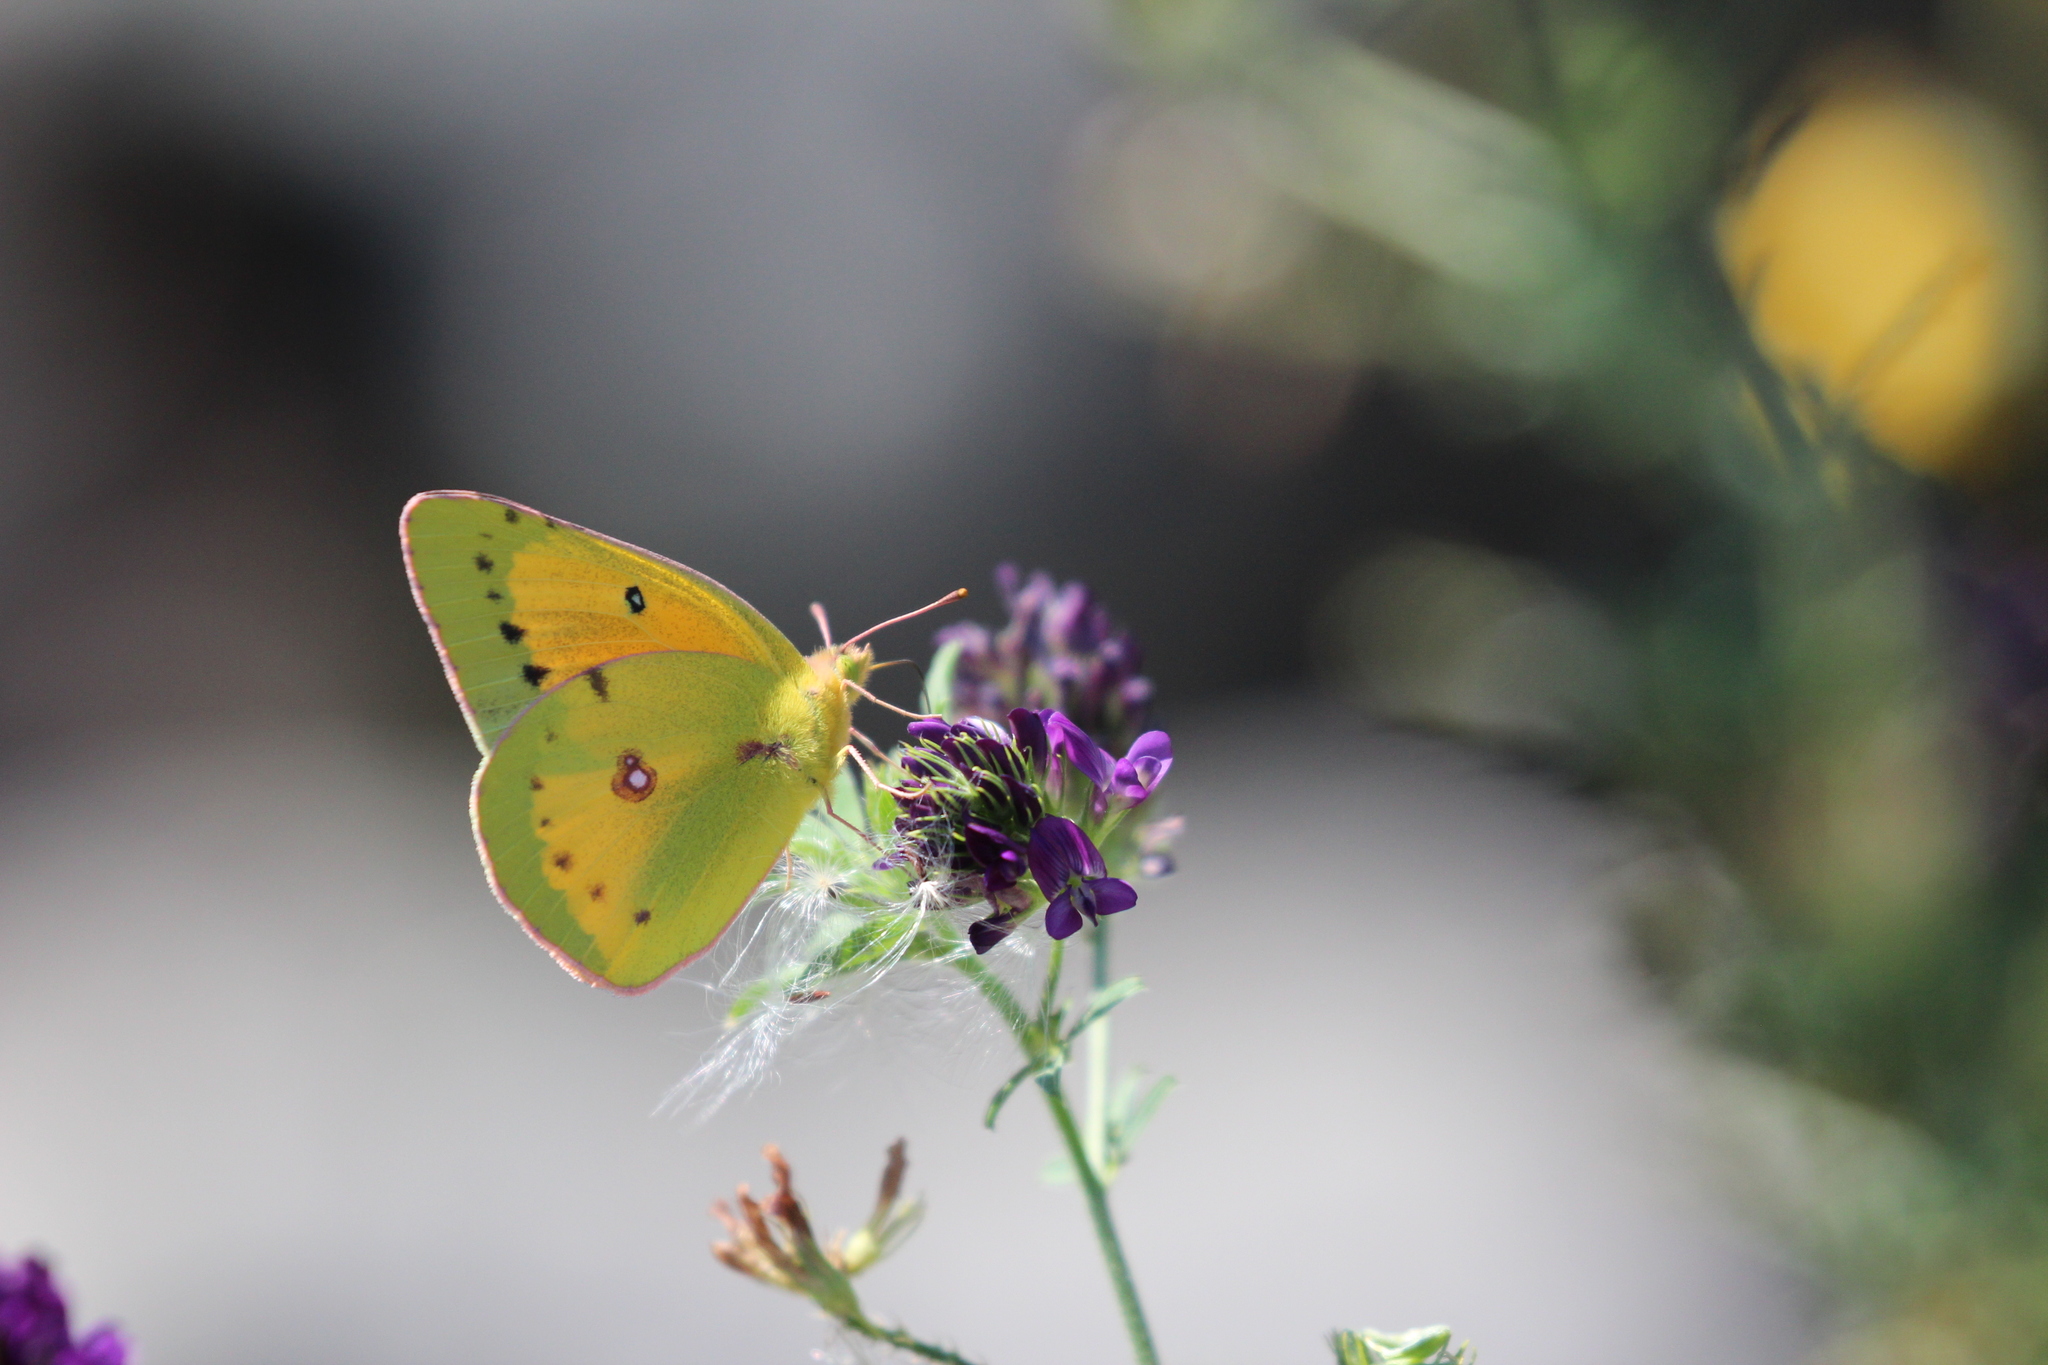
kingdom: Animalia
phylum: Arthropoda
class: Insecta
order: Lepidoptera
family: Pieridae
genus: Colias
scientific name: Colias eurytheme
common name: Alfalfa butterfly
